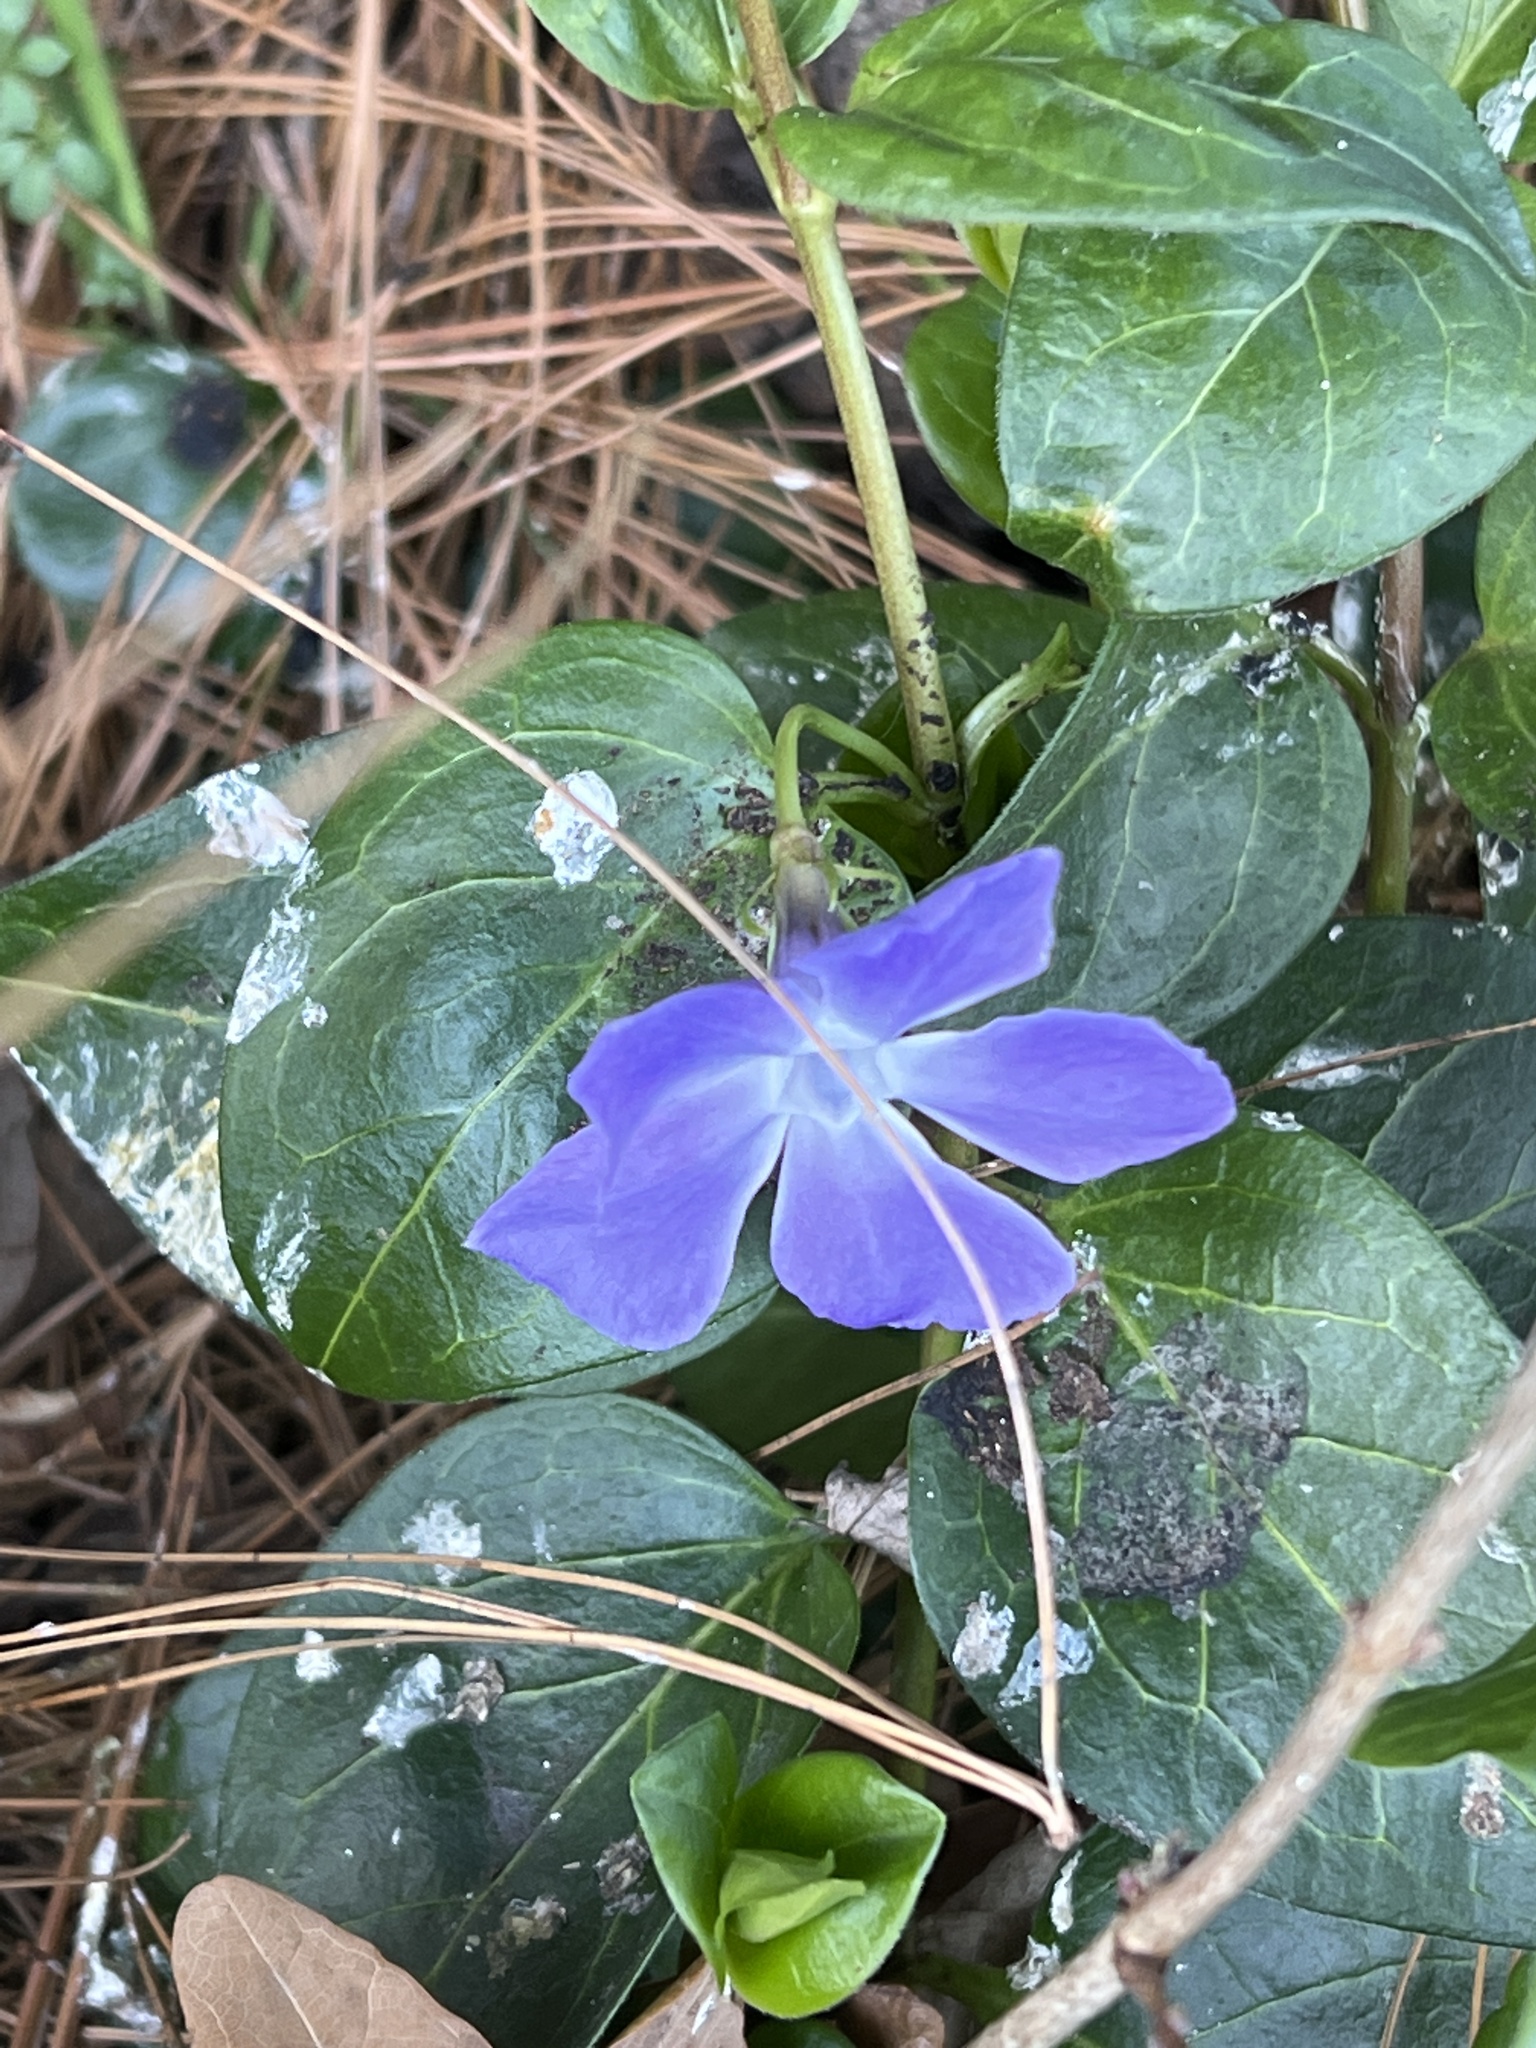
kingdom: Plantae
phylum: Tracheophyta
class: Magnoliopsida
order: Gentianales
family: Apocynaceae
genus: Vinca
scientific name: Vinca major
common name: Greater periwinkle
